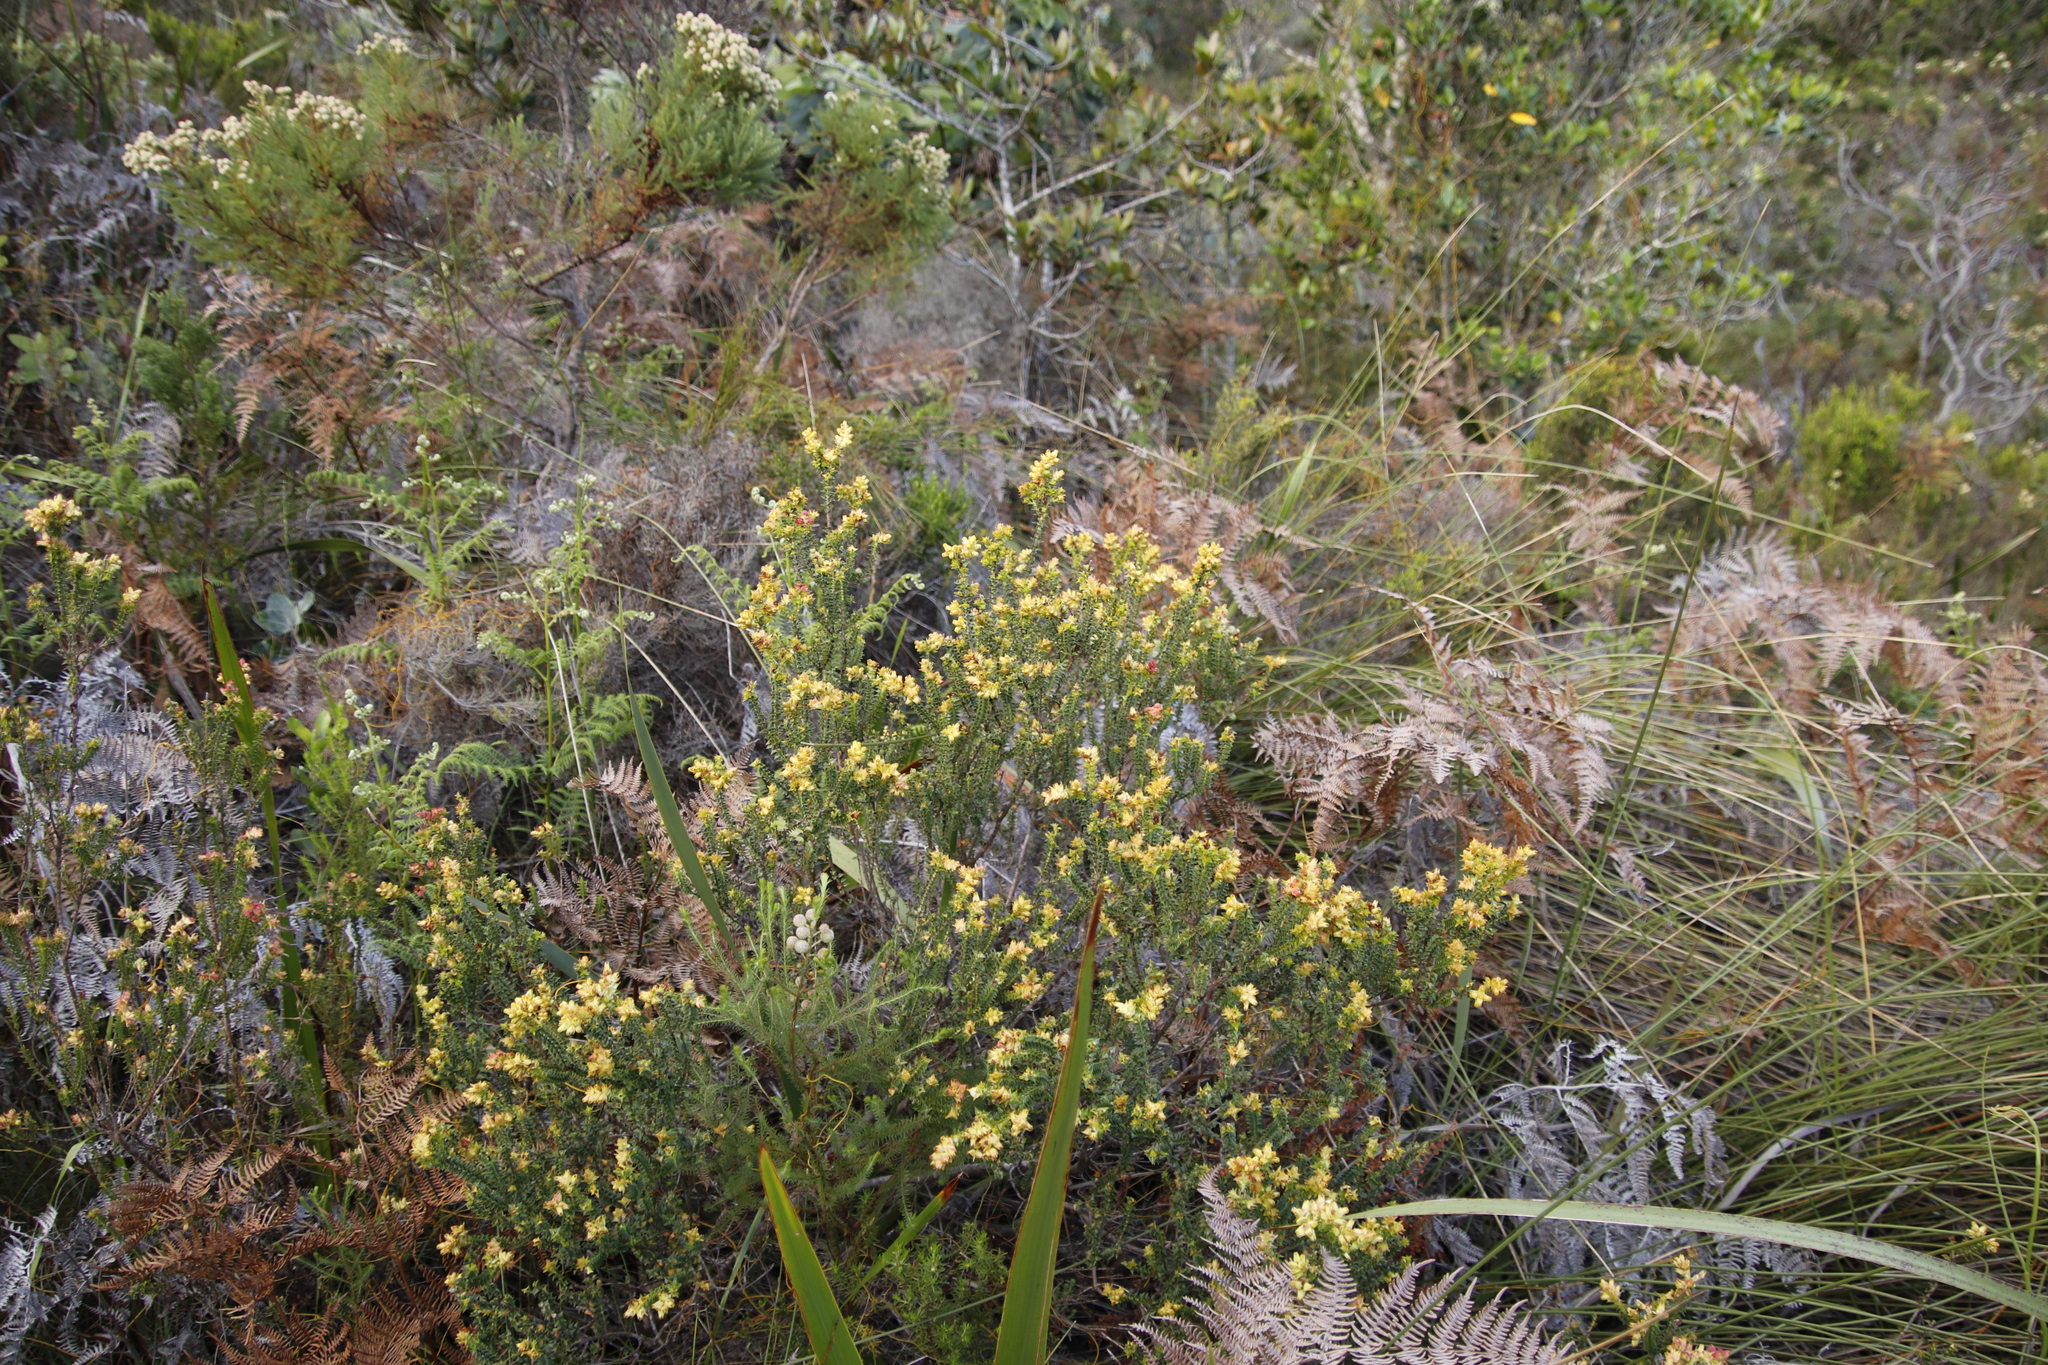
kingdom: Plantae
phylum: Tracheophyta
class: Magnoliopsida
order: Myrtales
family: Penaeaceae
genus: Penaea
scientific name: Penaea mucronata
